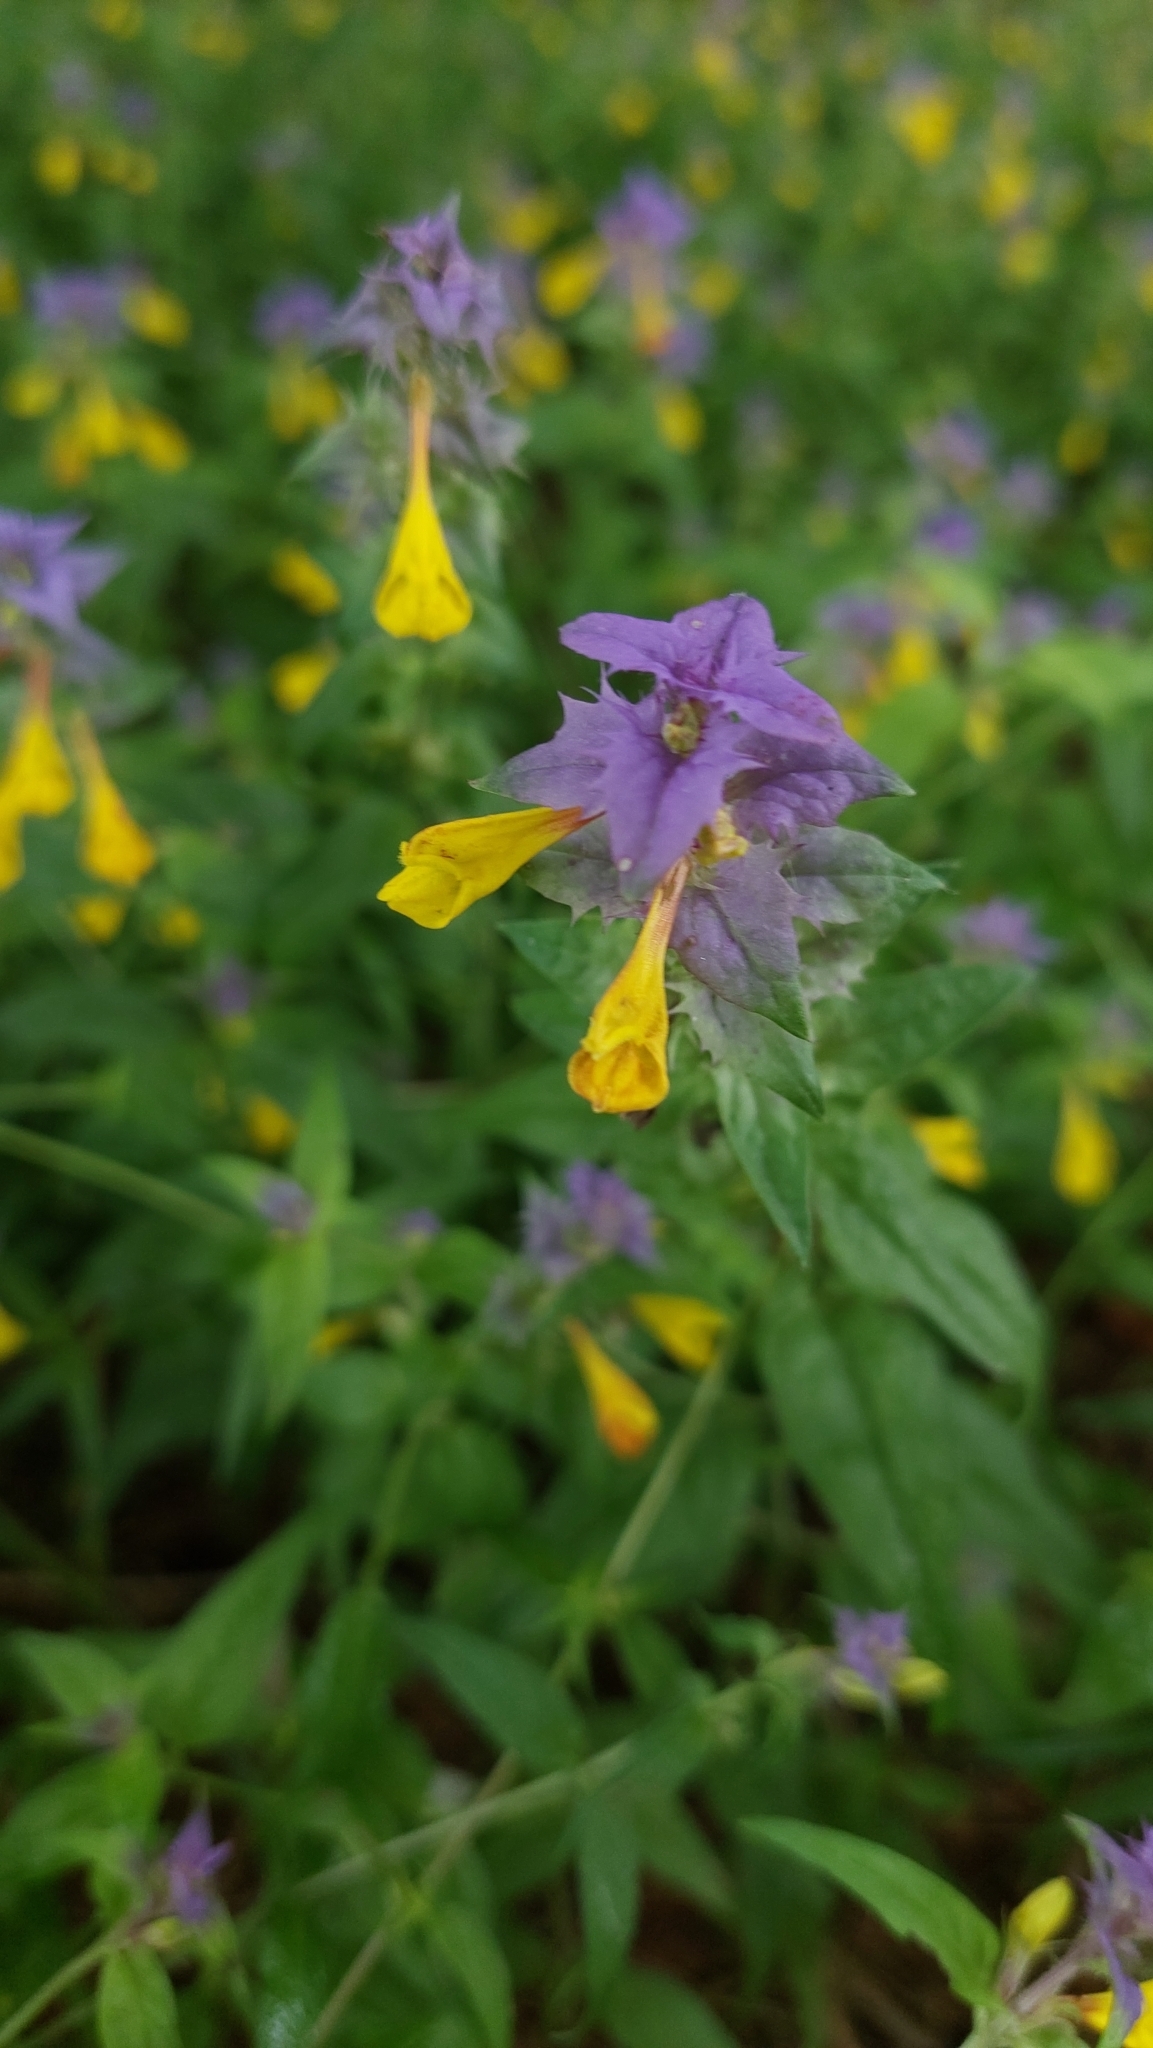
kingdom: Plantae
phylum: Tracheophyta
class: Magnoliopsida
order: Lamiales
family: Orobanchaceae
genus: Melampyrum
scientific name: Melampyrum nemorosum
